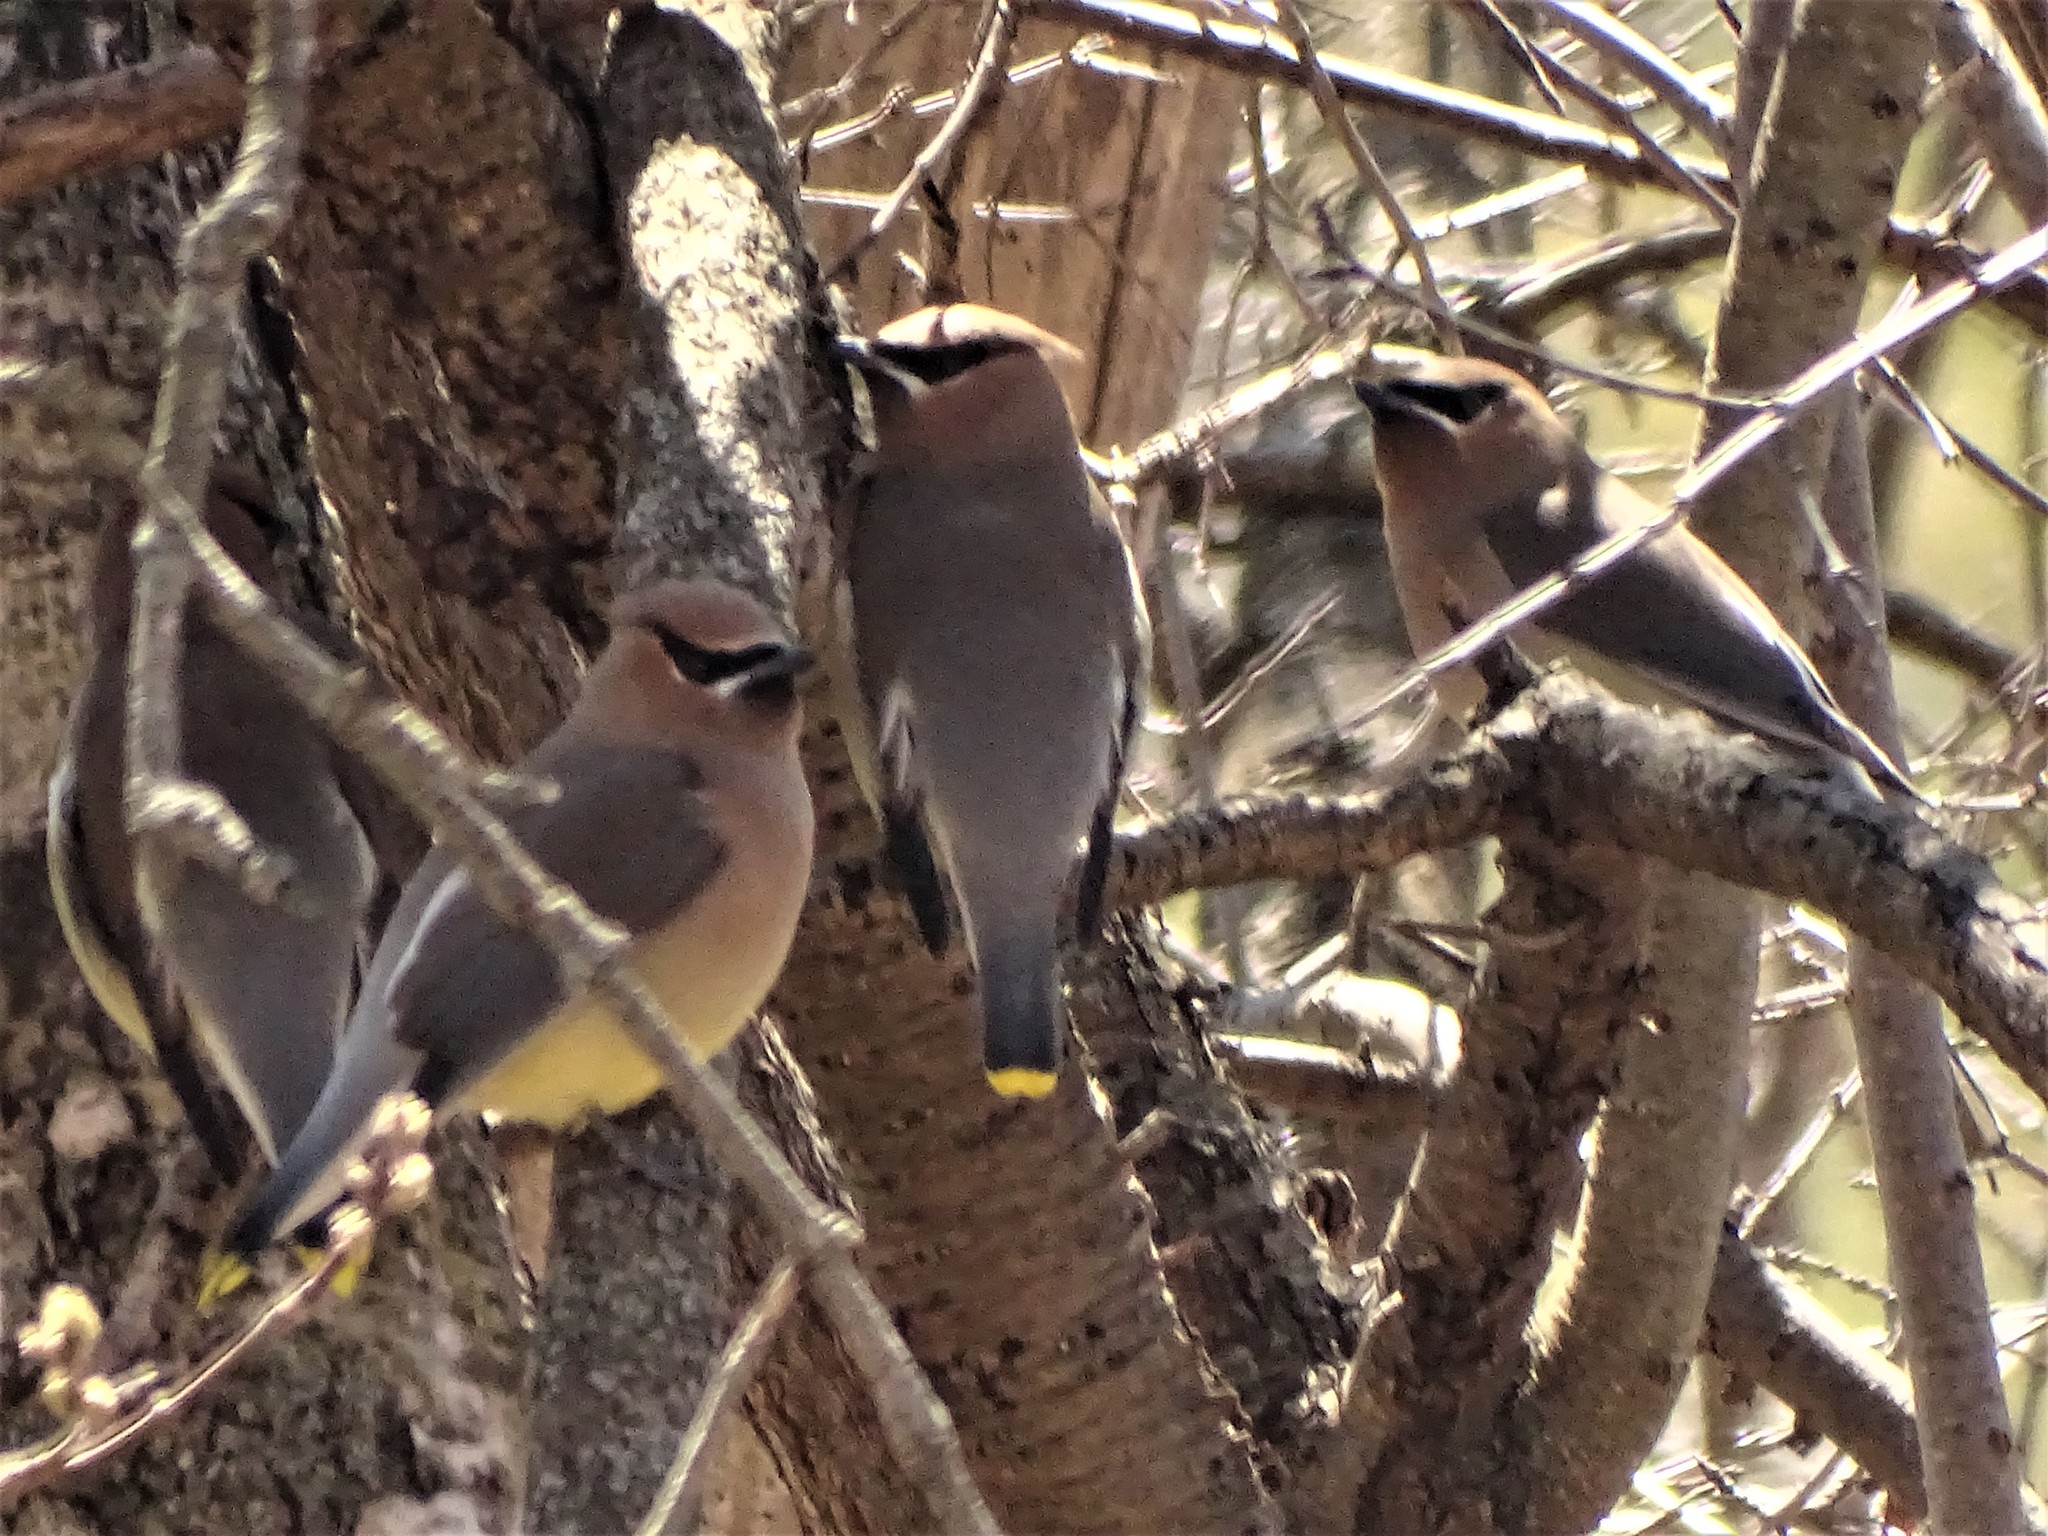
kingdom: Animalia
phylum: Chordata
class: Aves
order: Passeriformes
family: Bombycillidae
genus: Bombycilla
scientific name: Bombycilla cedrorum
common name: Cedar waxwing
